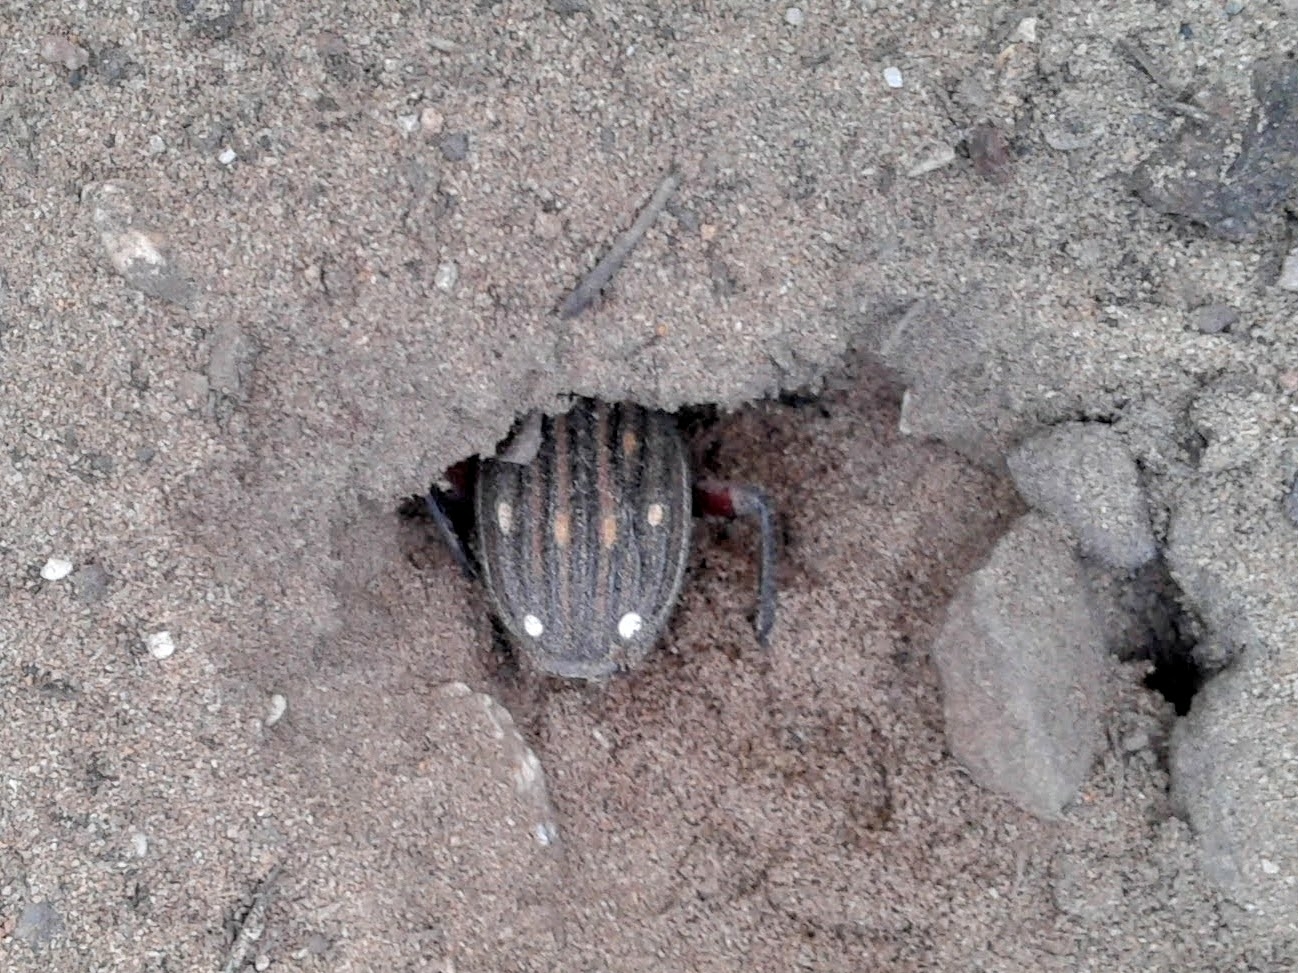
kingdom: Animalia
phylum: Arthropoda
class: Insecta
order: Coleoptera
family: Carabidae
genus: Anthia
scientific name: Anthia decemguttata
